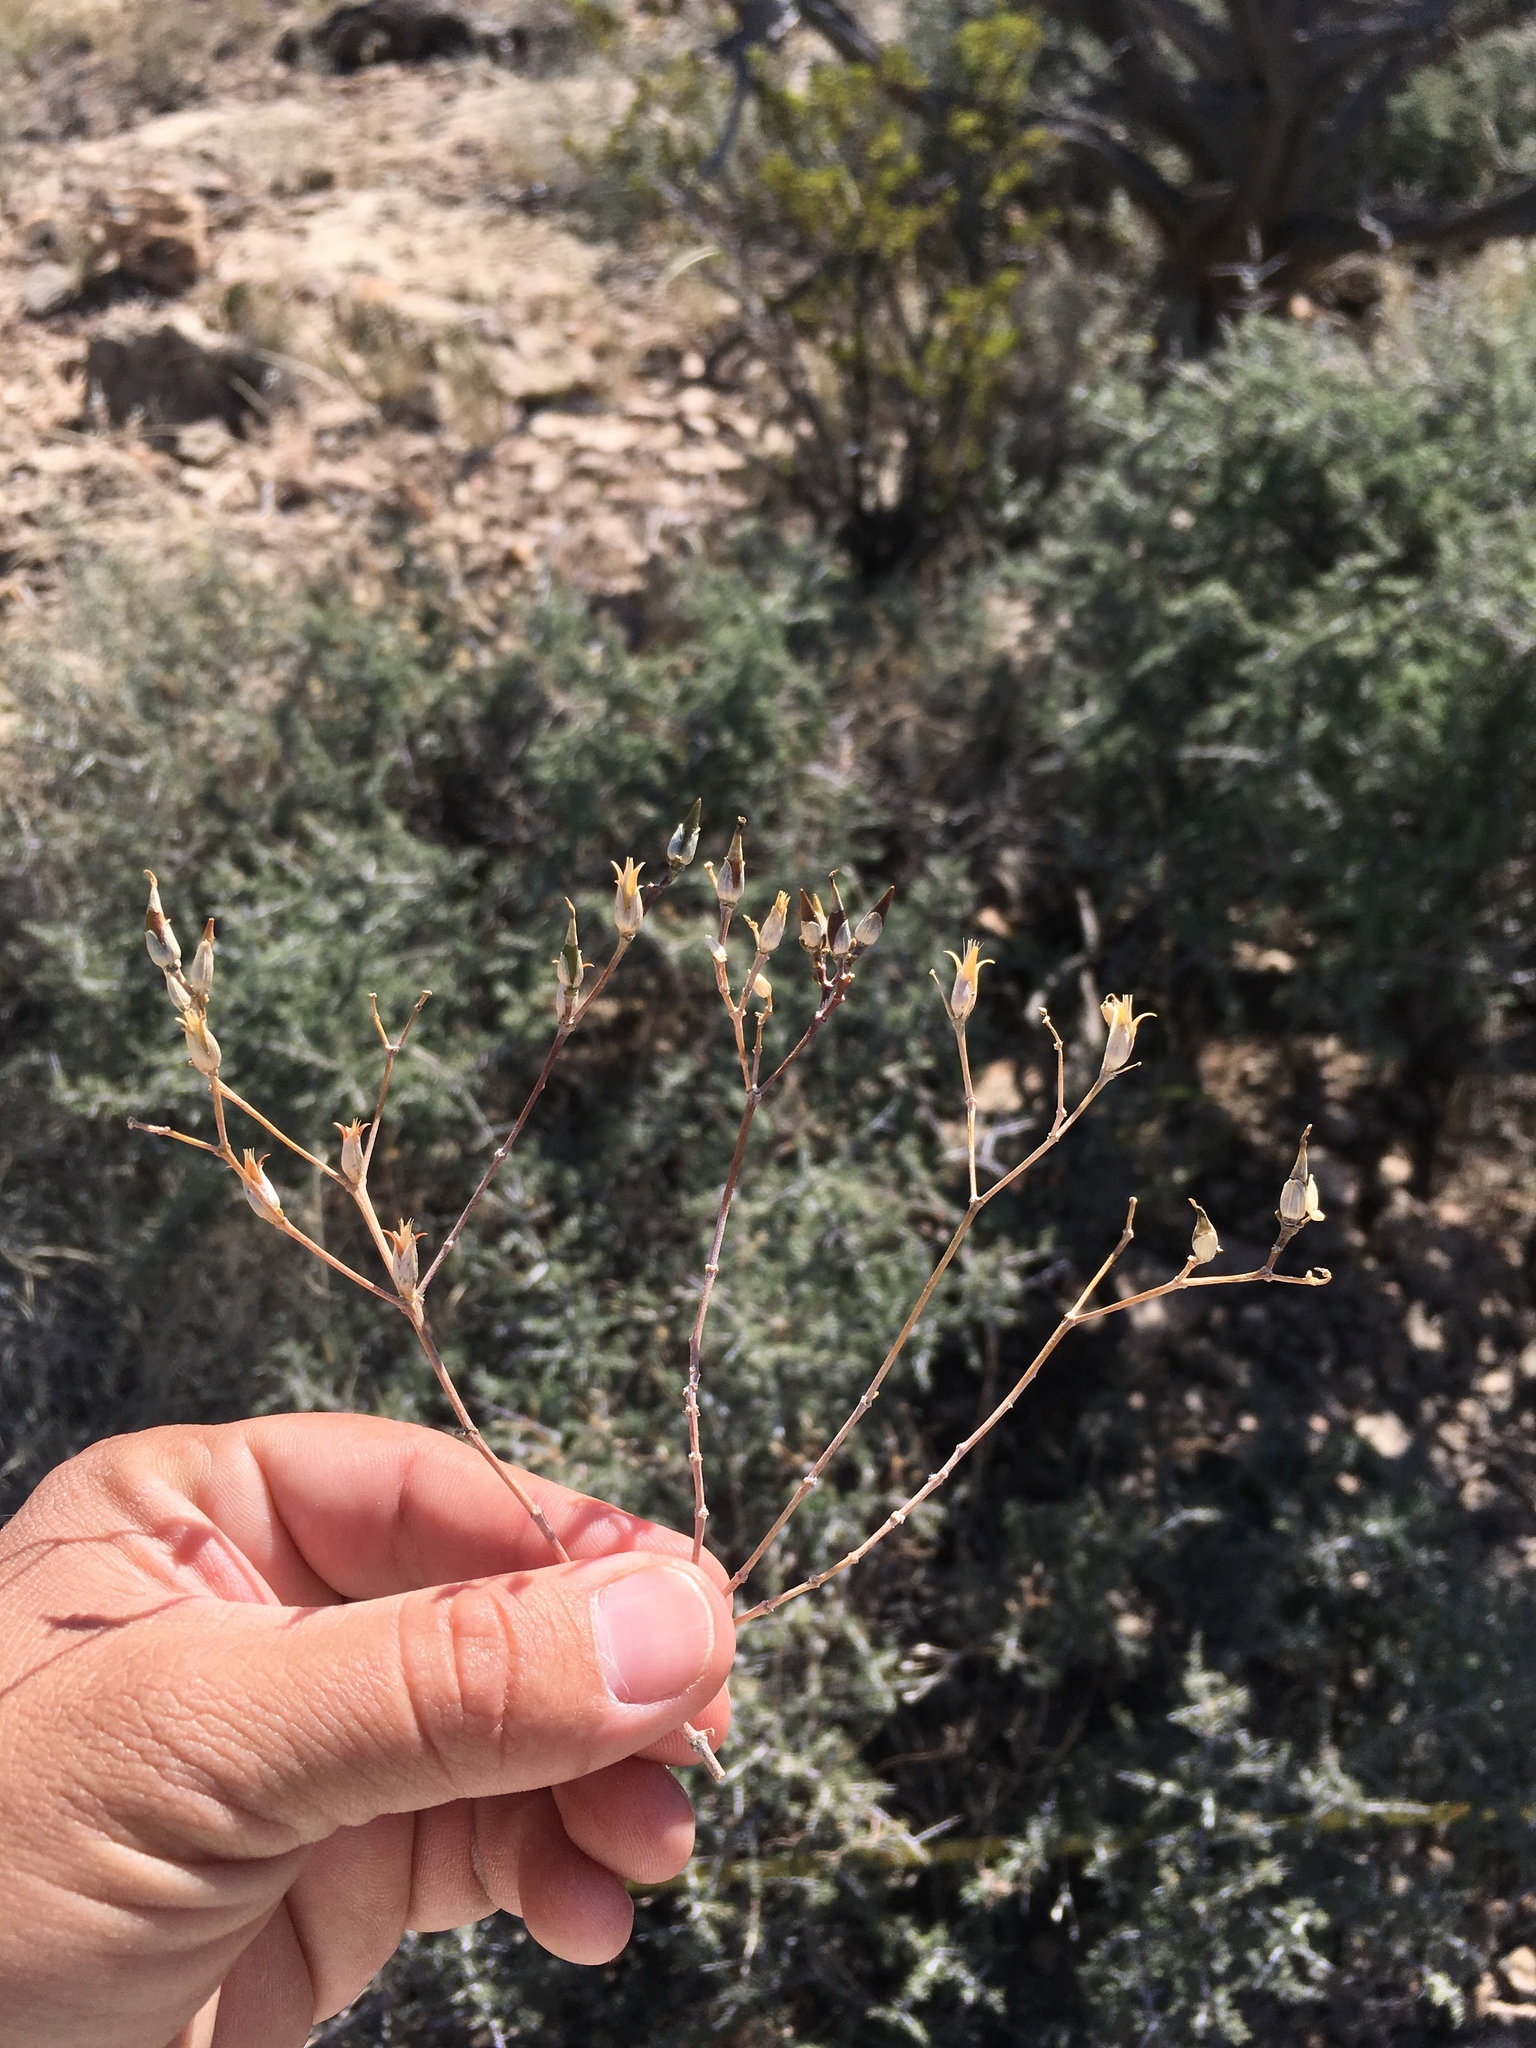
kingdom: Plantae
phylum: Tracheophyta
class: Magnoliopsida
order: Caryophyllales
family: Anacampserotaceae
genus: Grahamia
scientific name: Grahamia frutescens
